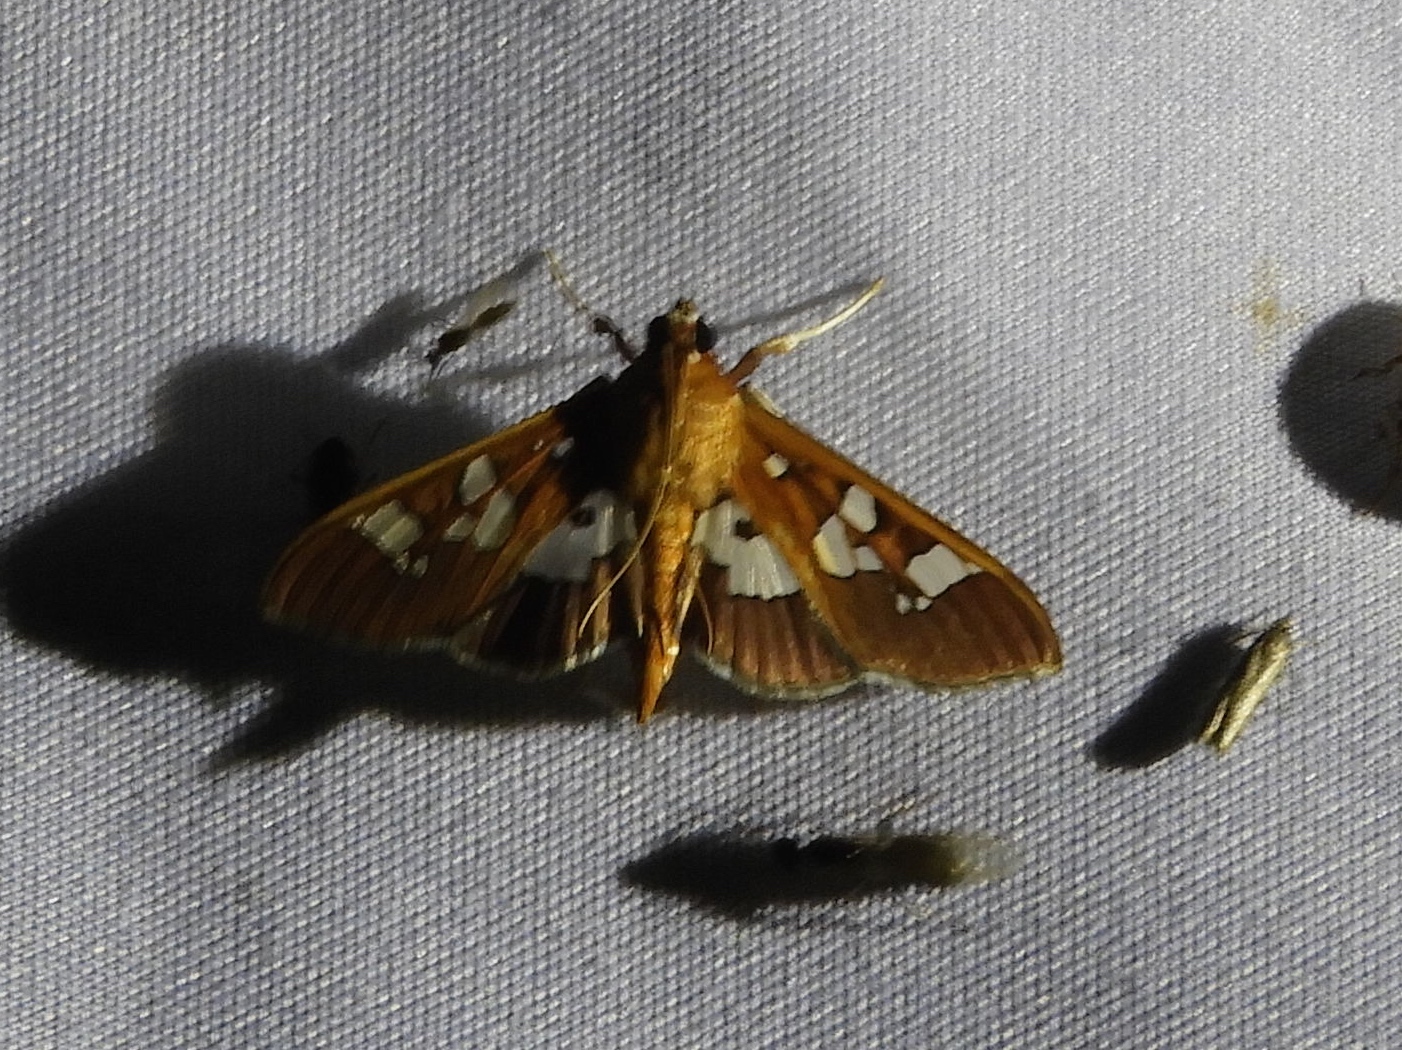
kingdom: Animalia
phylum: Arthropoda
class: Insecta
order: Lepidoptera
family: Crambidae
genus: Phostria
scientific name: Phostria
